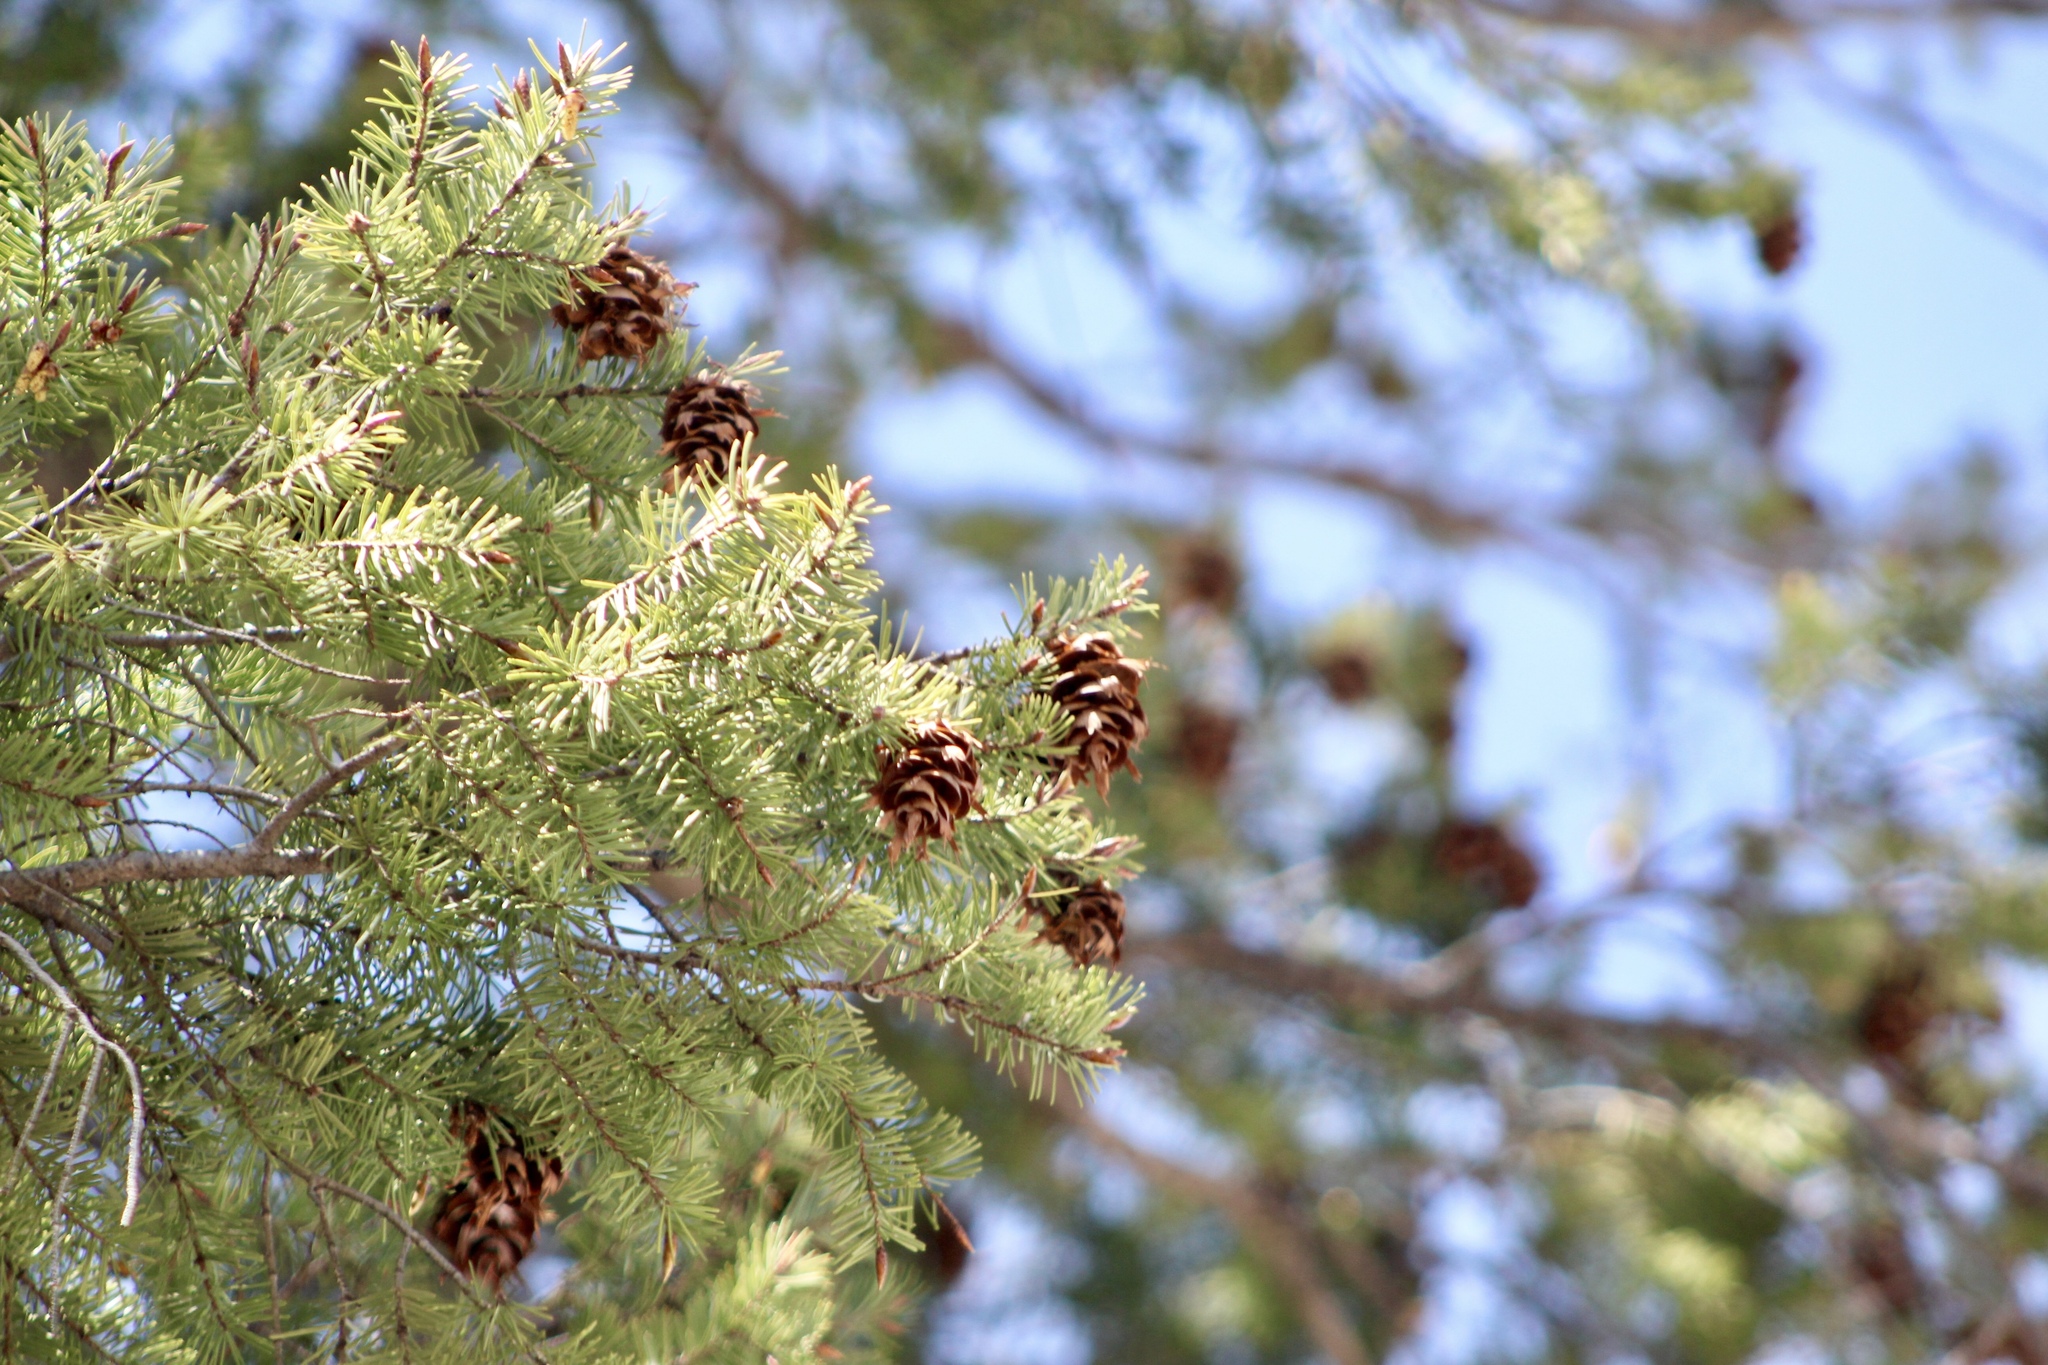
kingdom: Plantae
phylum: Tracheophyta
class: Pinopsida
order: Pinales
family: Pinaceae
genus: Pseudotsuga
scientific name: Pseudotsuga menziesii
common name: Douglas fir
